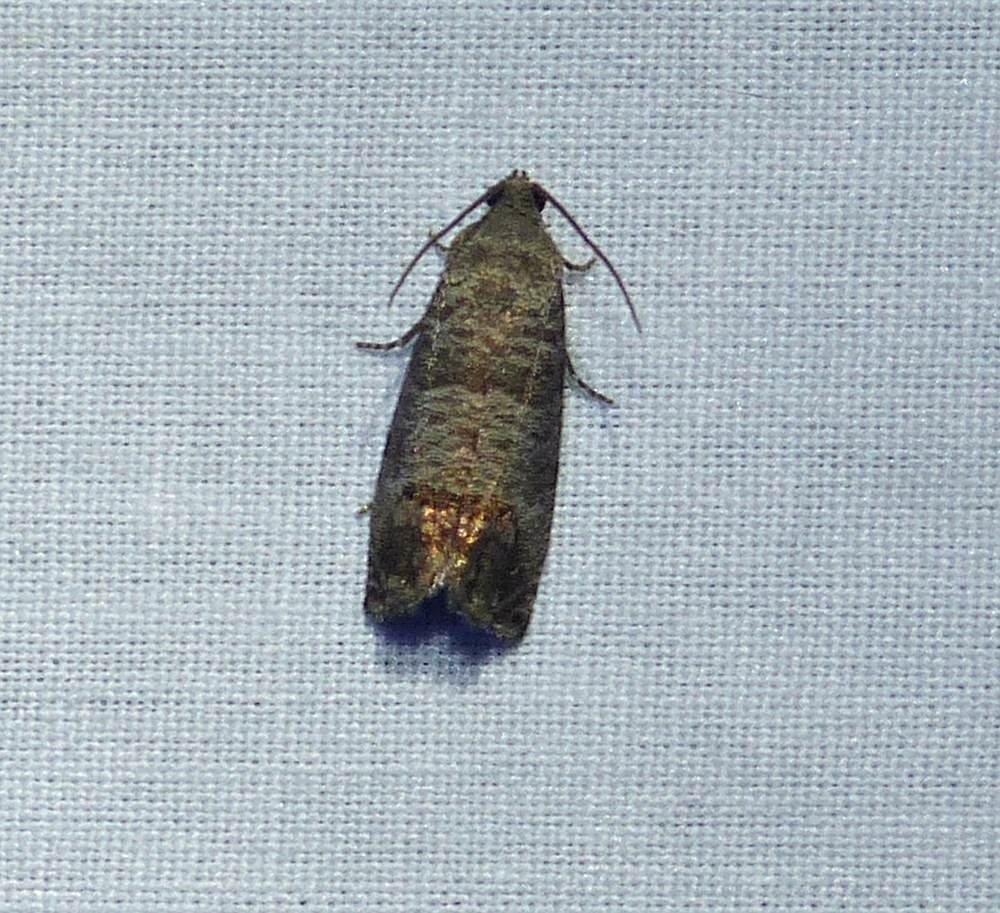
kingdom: Animalia
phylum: Arthropoda
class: Insecta
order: Lepidoptera
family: Tortricidae
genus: Cydia
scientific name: Cydia pomonella
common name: Codling moth
